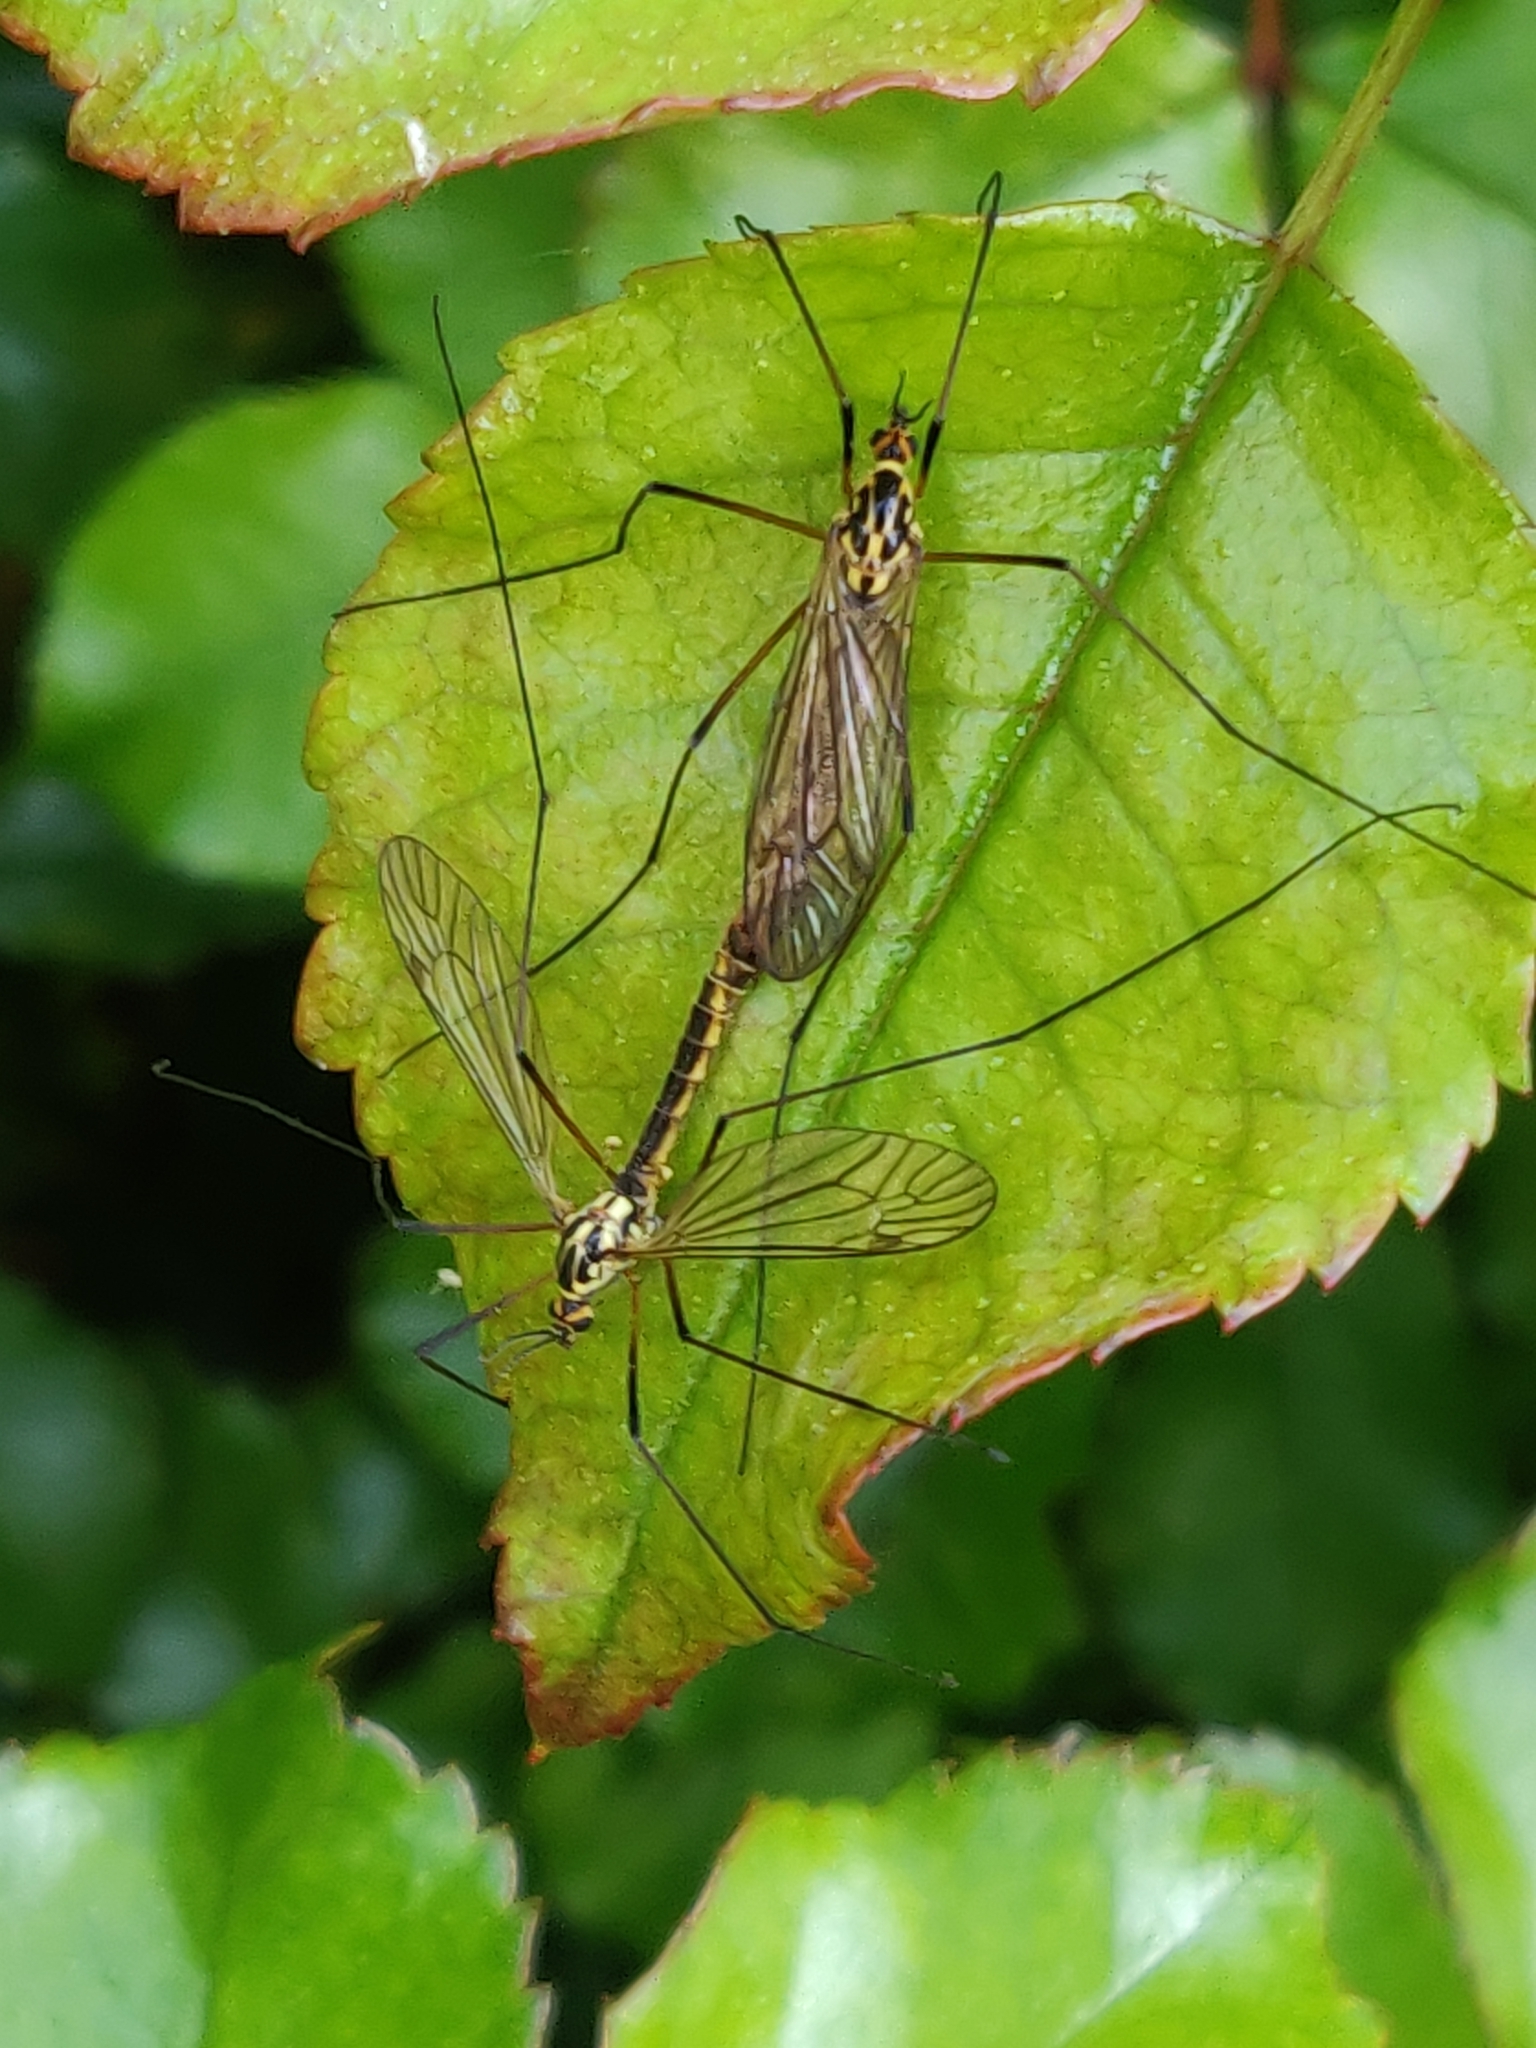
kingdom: Animalia
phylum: Arthropoda
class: Insecta
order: Diptera
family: Tipulidae
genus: Nephrotoma
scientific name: Nephrotoma appendiculata
